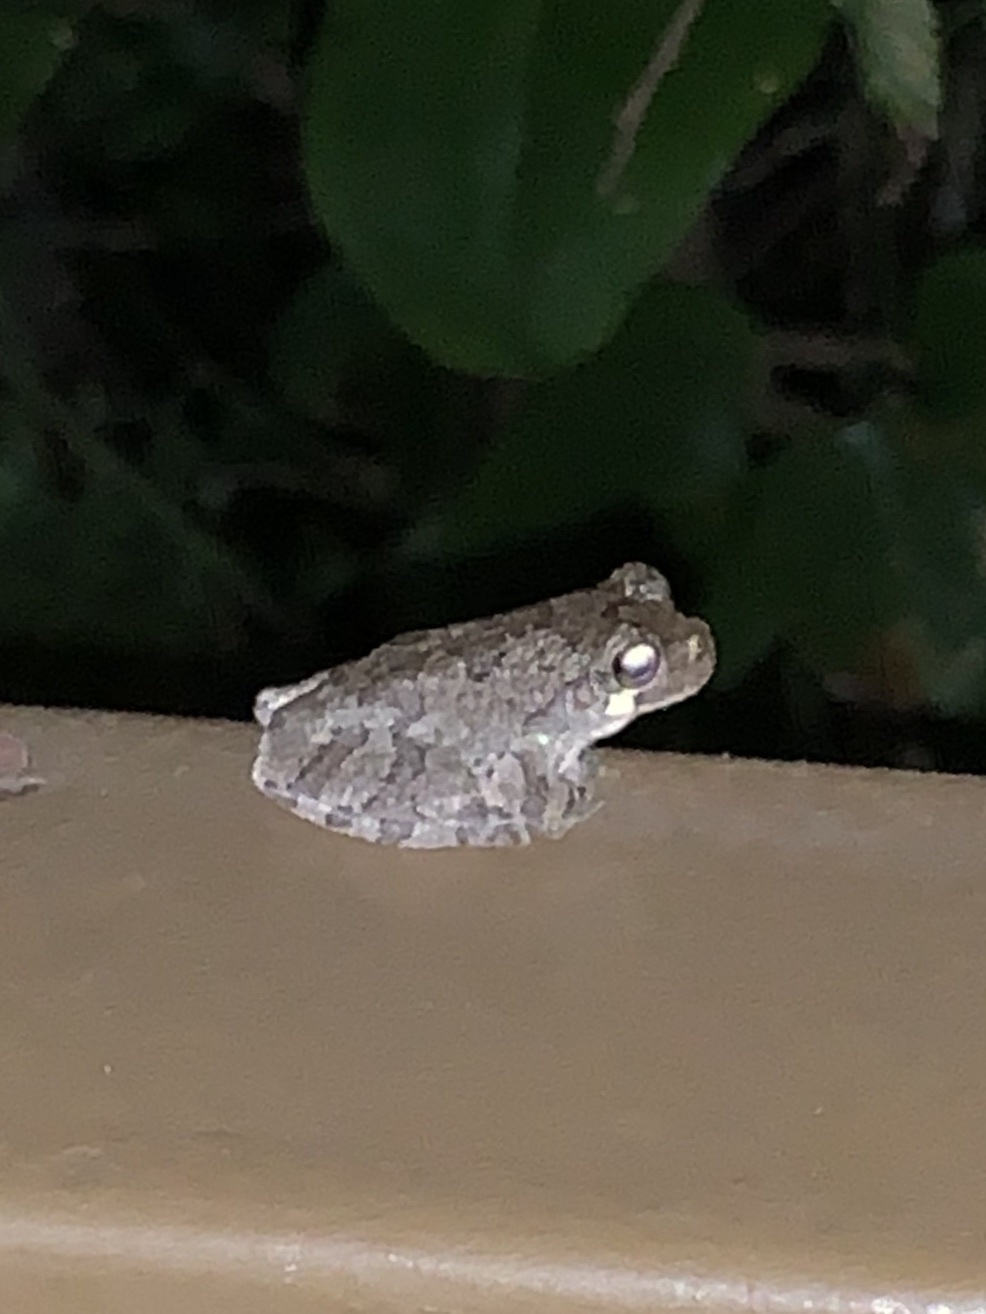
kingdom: Animalia
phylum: Chordata
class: Amphibia
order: Anura
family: Hylidae
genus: Dryophytes
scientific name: Dryophytes chrysoscelis
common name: Cope's gray treefrog
